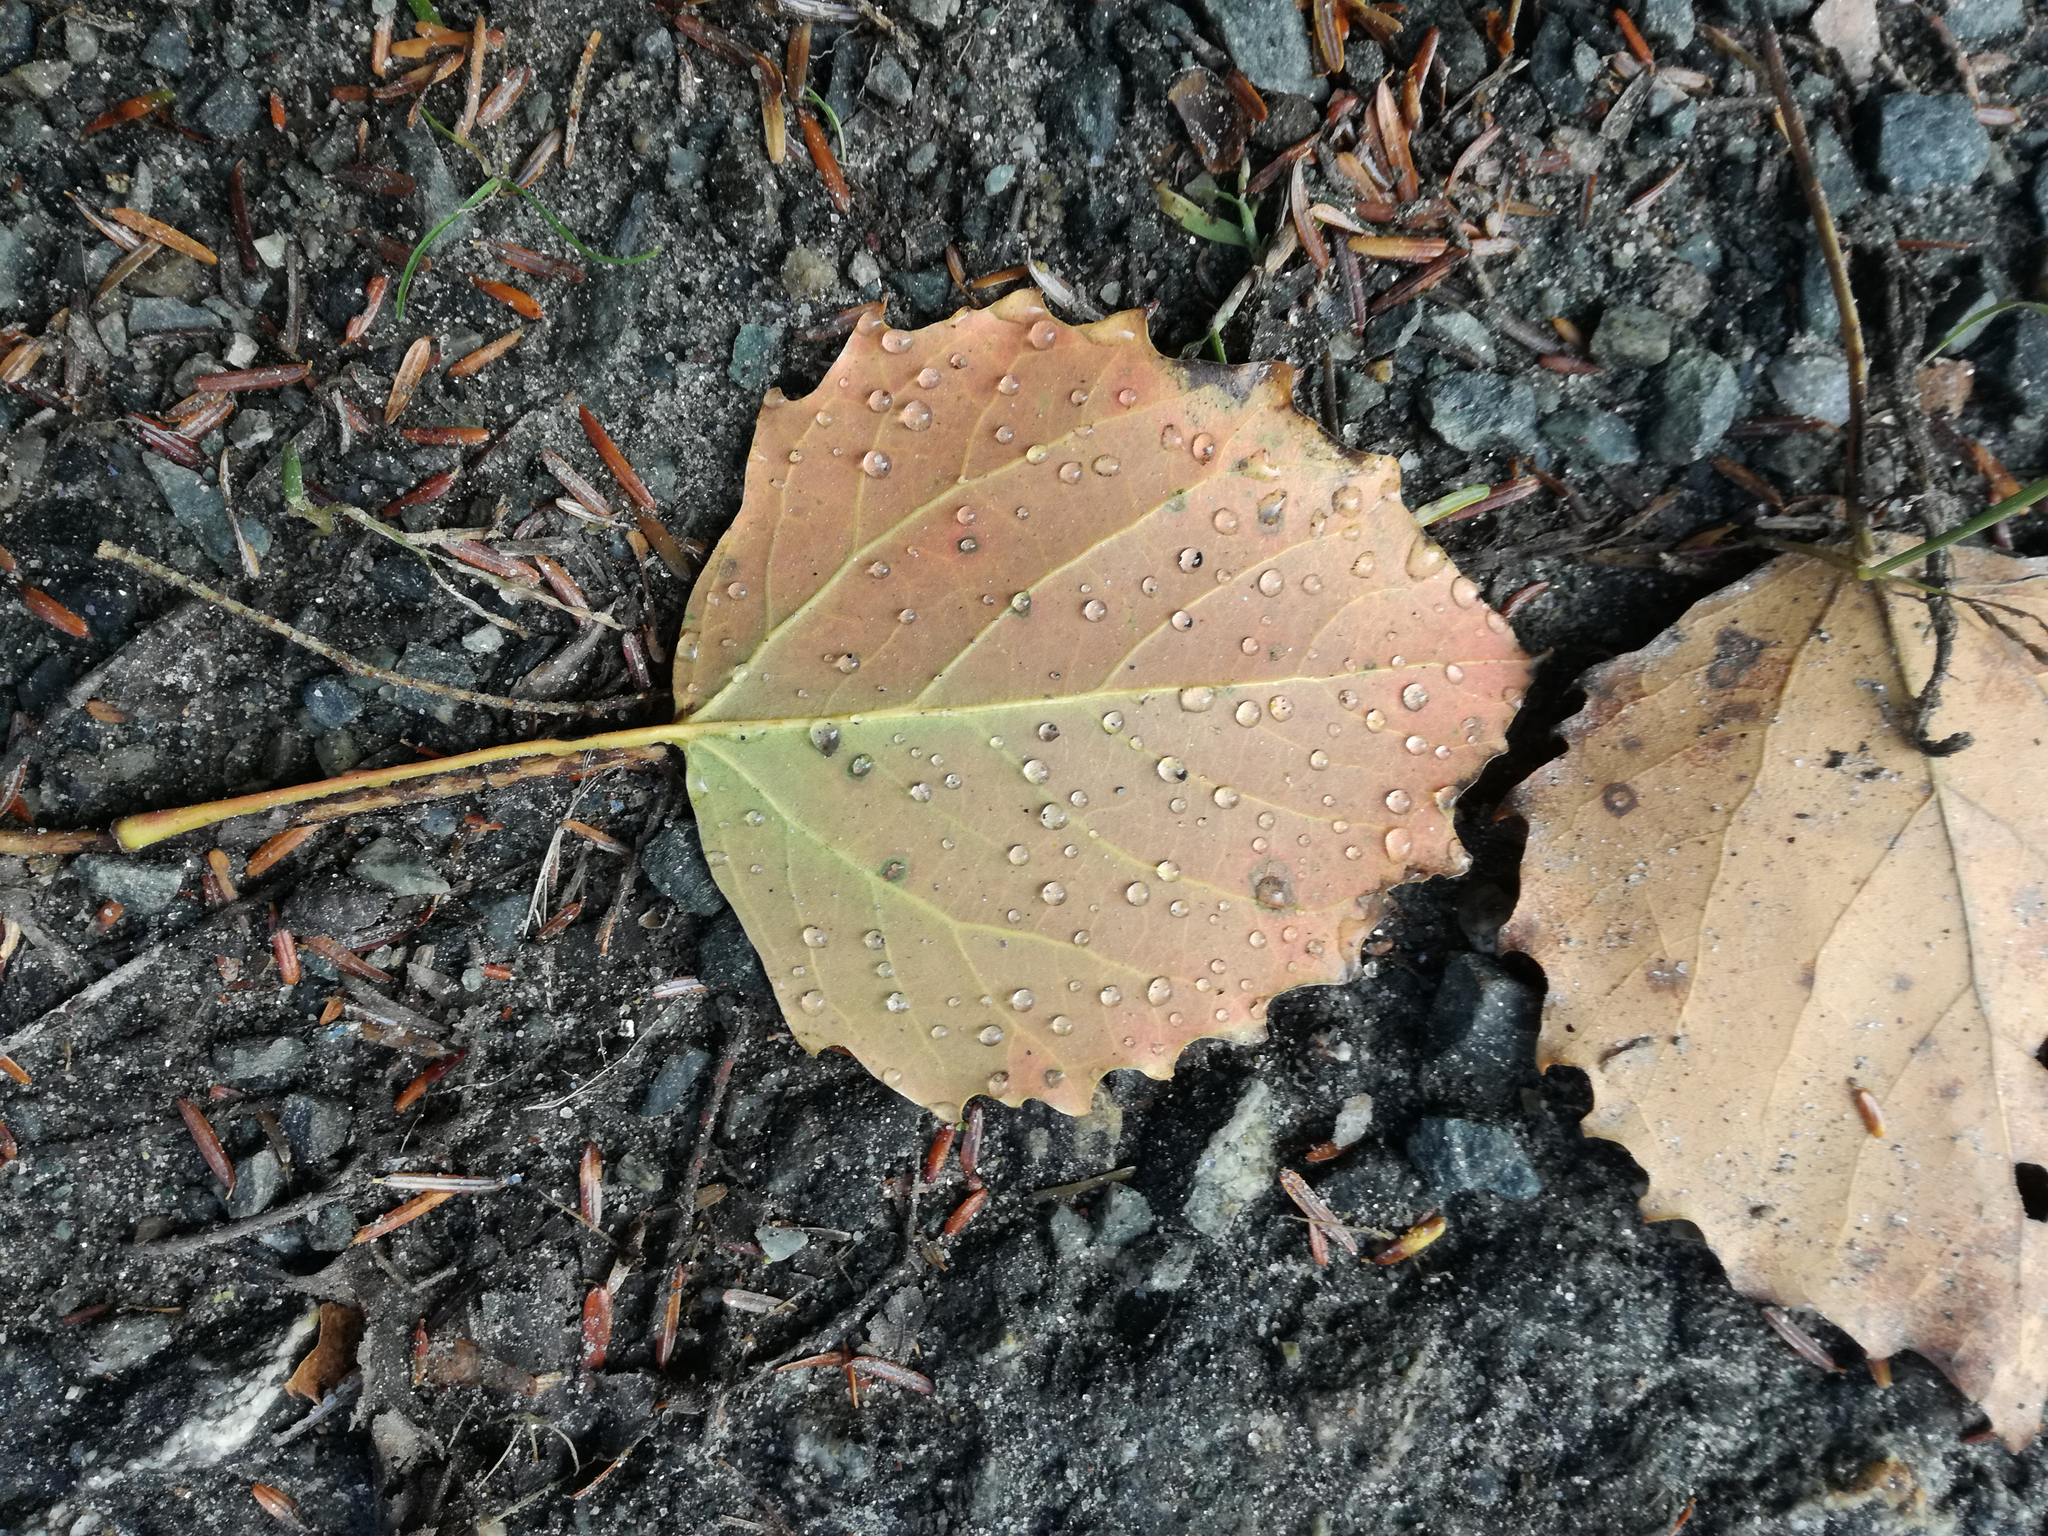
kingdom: Plantae
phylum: Tracheophyta
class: Magnoliopsida
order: Malpighiales
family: Salicaceae
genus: Populus
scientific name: Populus grandidentata
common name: Bigtooth aspen
